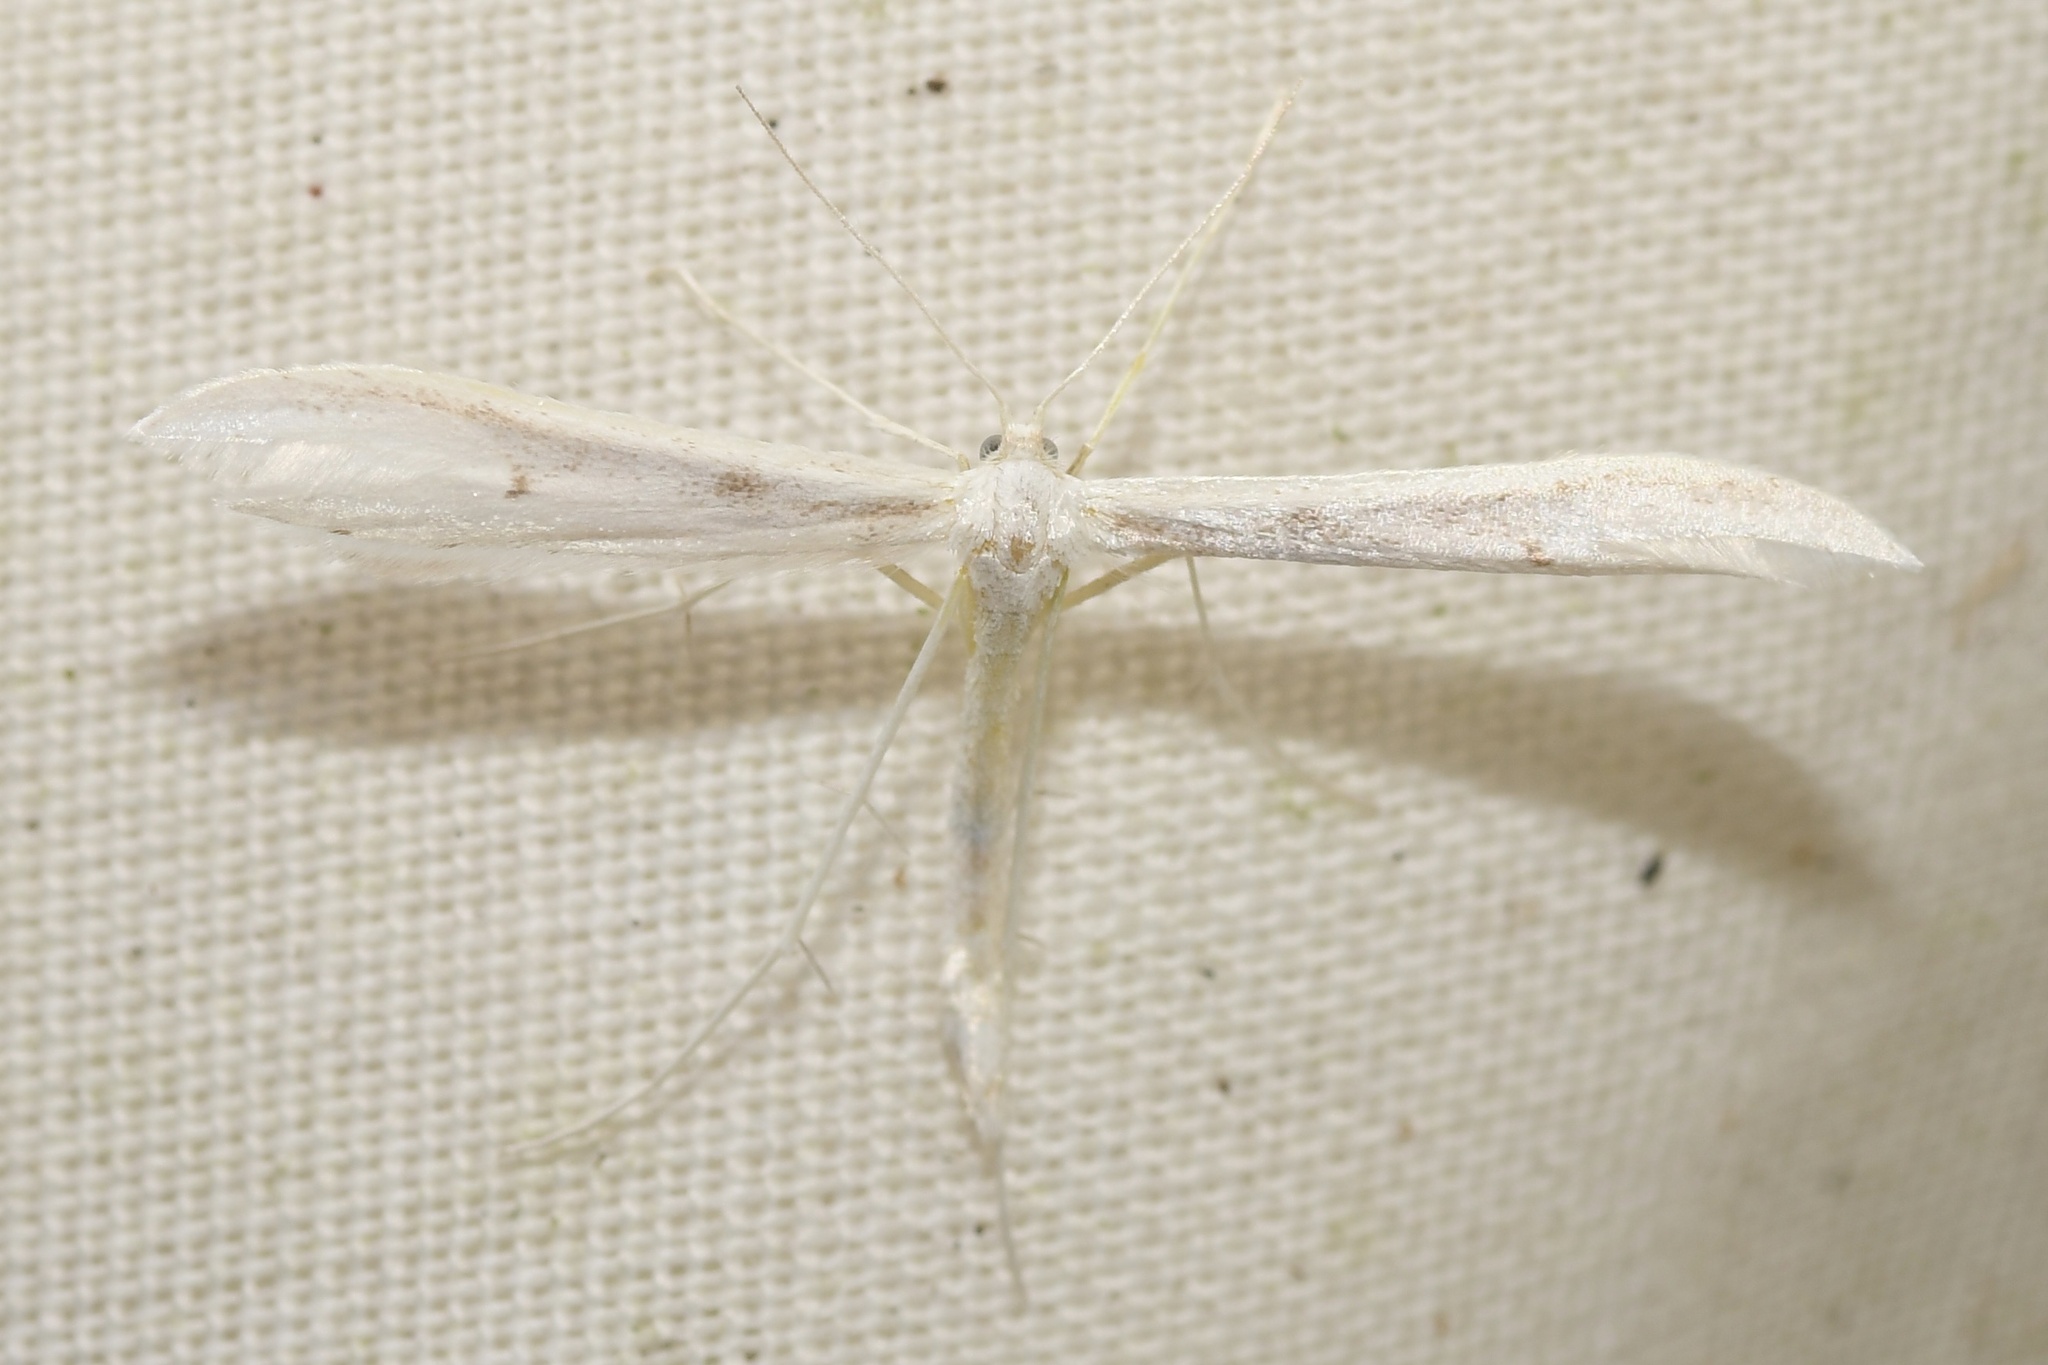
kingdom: Animalia
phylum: Arthropoda
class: Insecta
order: Lepidoptera
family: Pterophoridae
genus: Hellinsia
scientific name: Hellinsia homodactylus
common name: Plain plume moth
